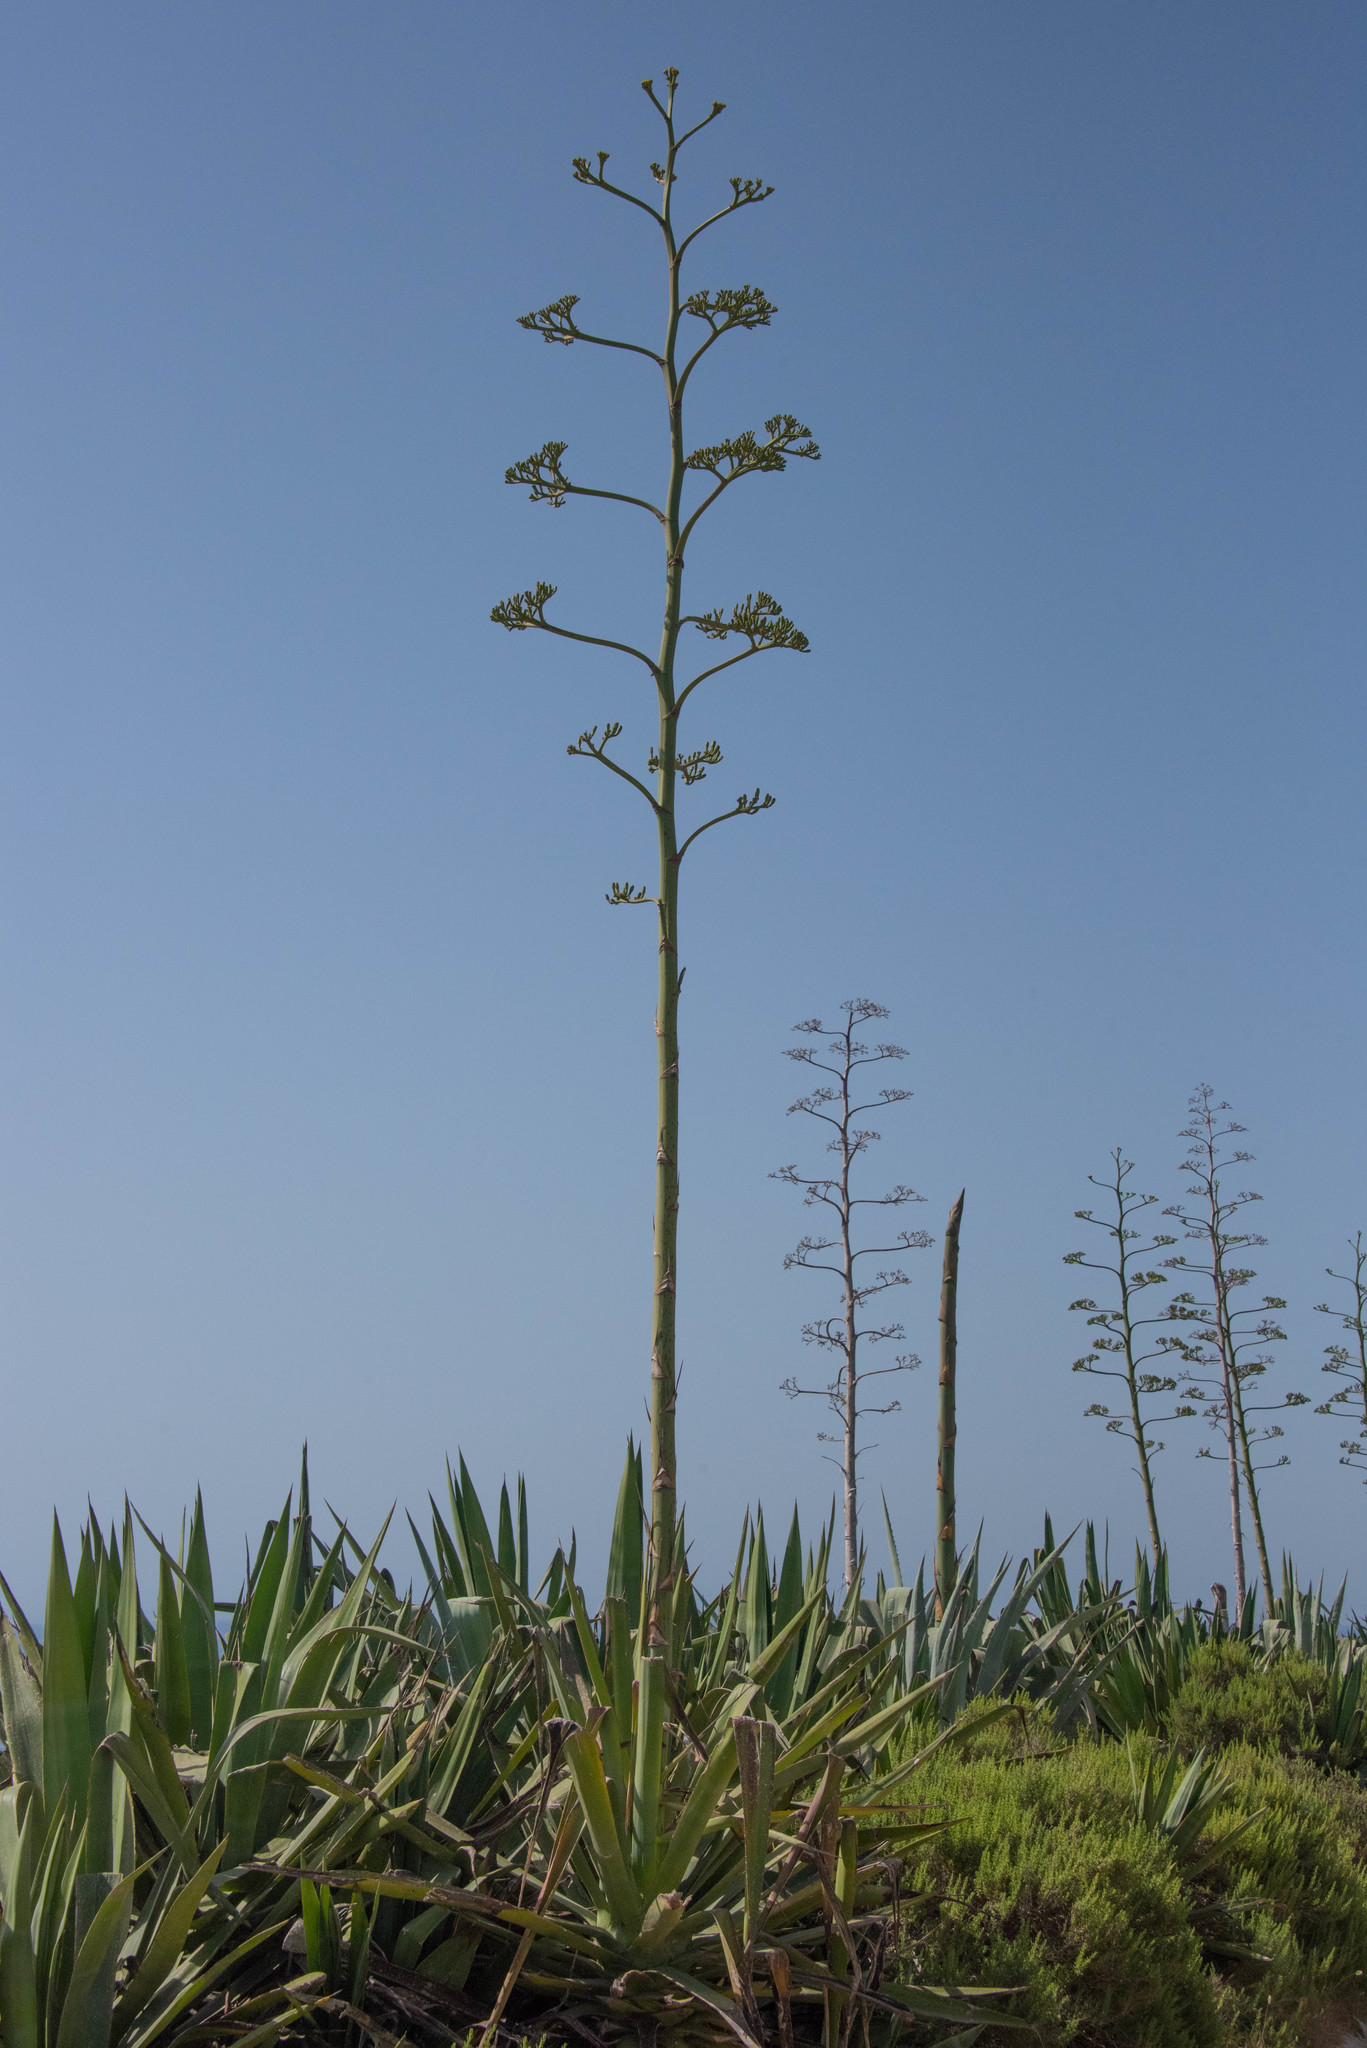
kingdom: Plantae
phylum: Tracheophyta
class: Liliopsida
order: Asparagales
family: Asparagaceae
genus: Agave
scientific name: Agave sisalana
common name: Sisal hemp
